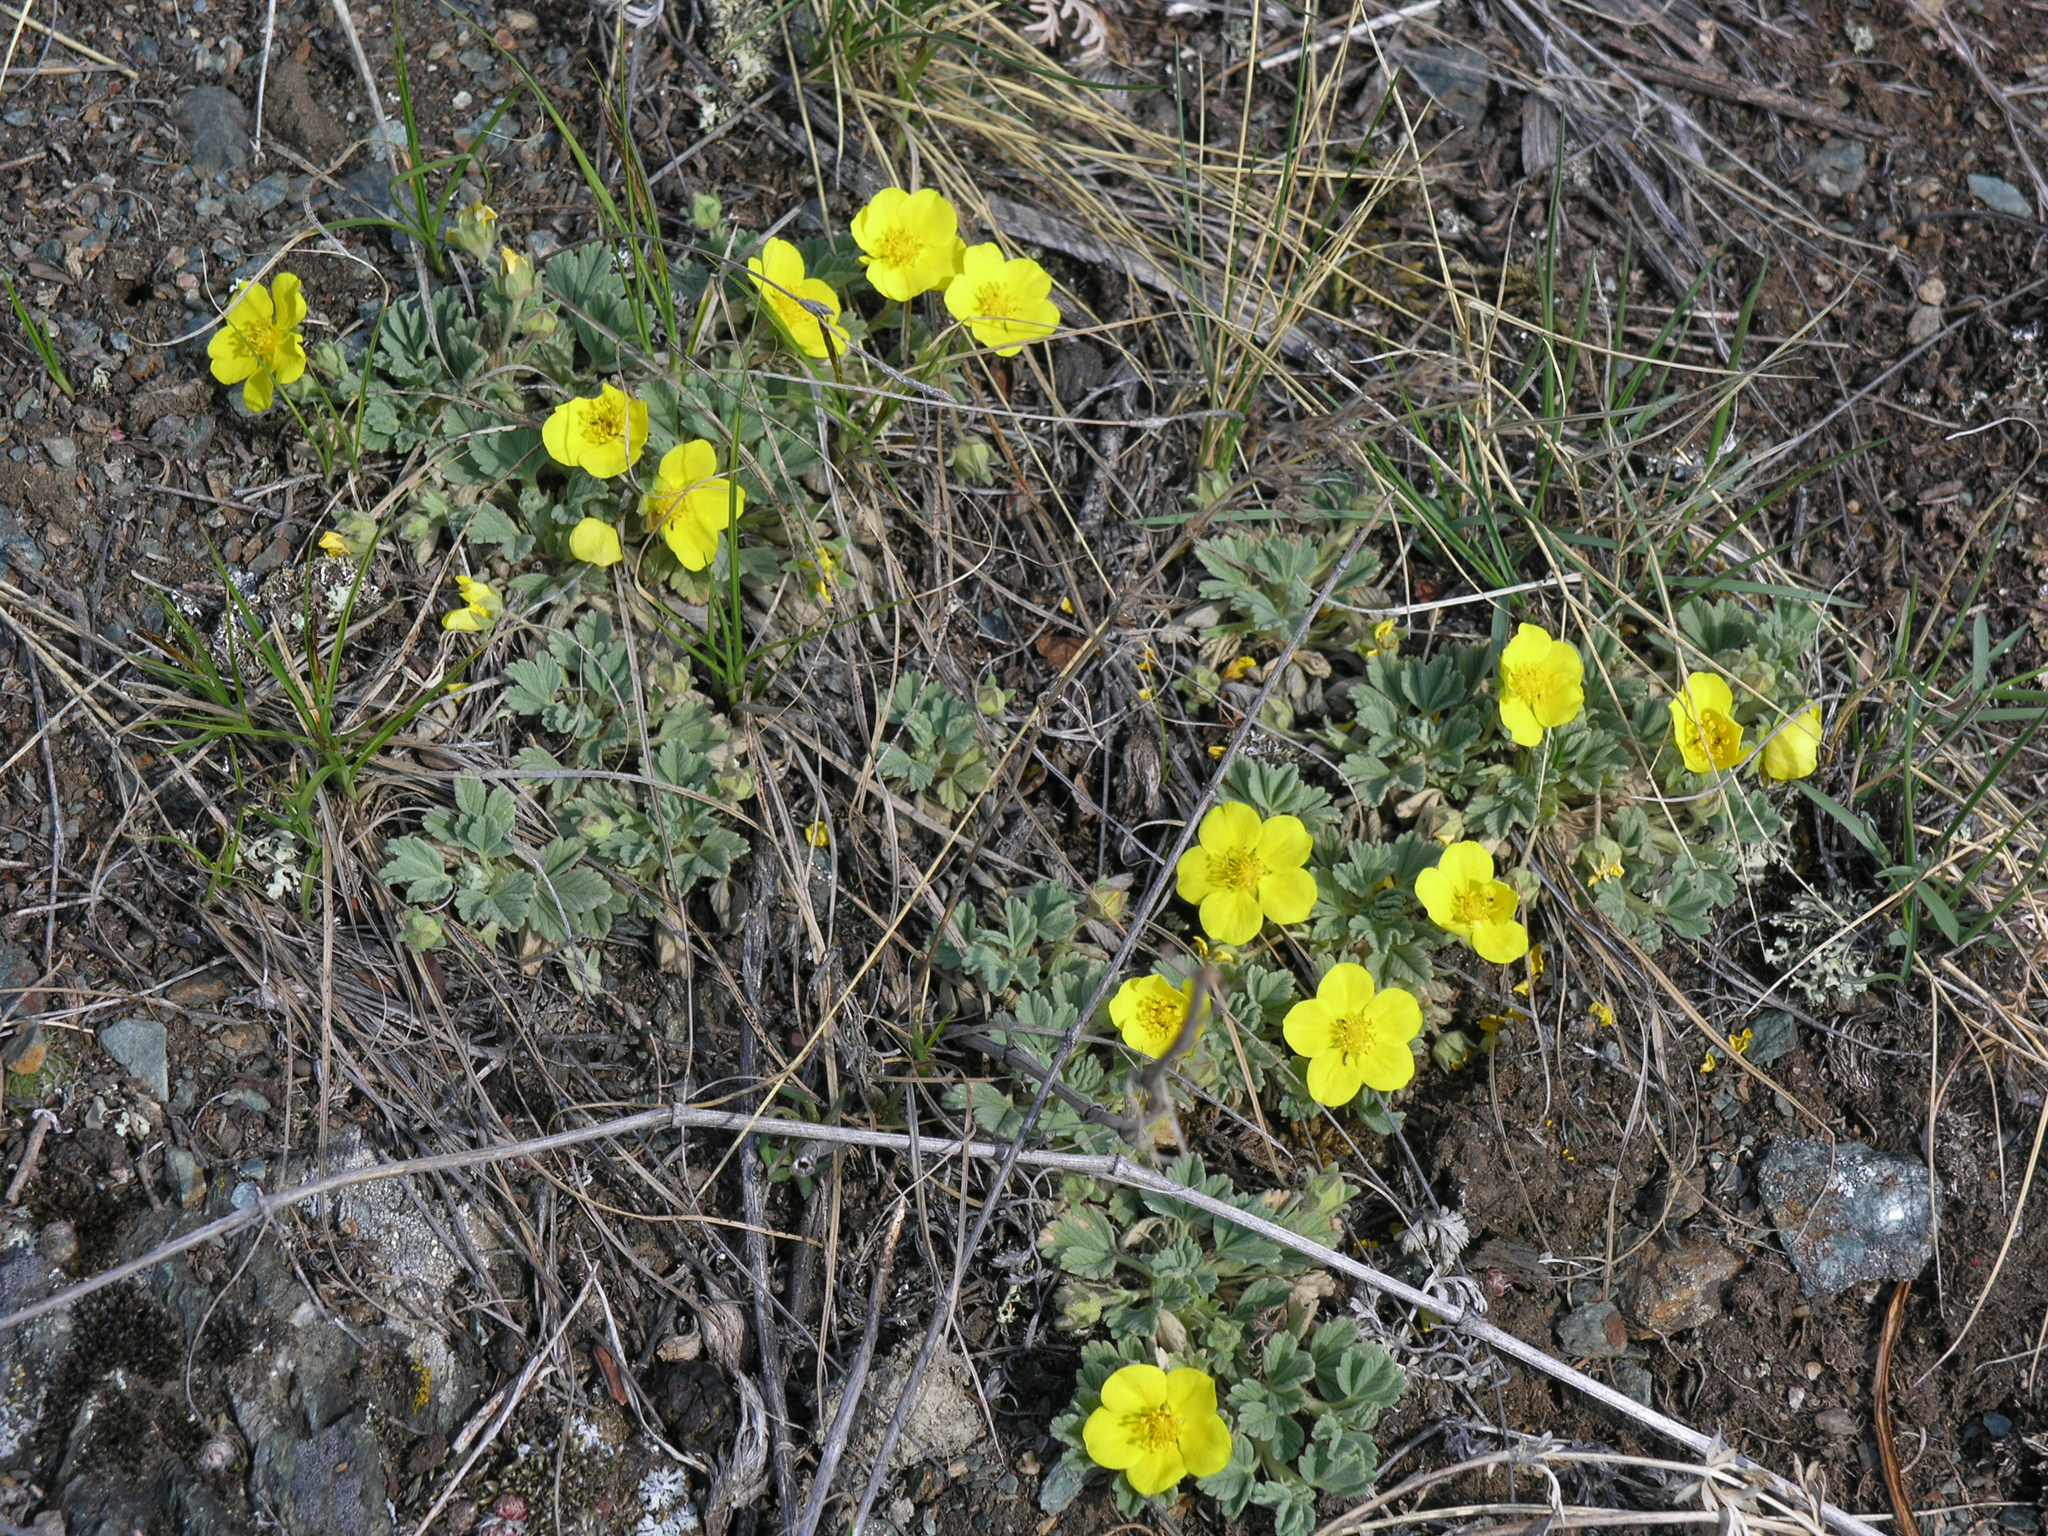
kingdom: Plantae
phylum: Tracheophyta
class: Magnoliopsida
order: Rosales
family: Rosaceae
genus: Potentilla
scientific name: Potentilla acaulis
